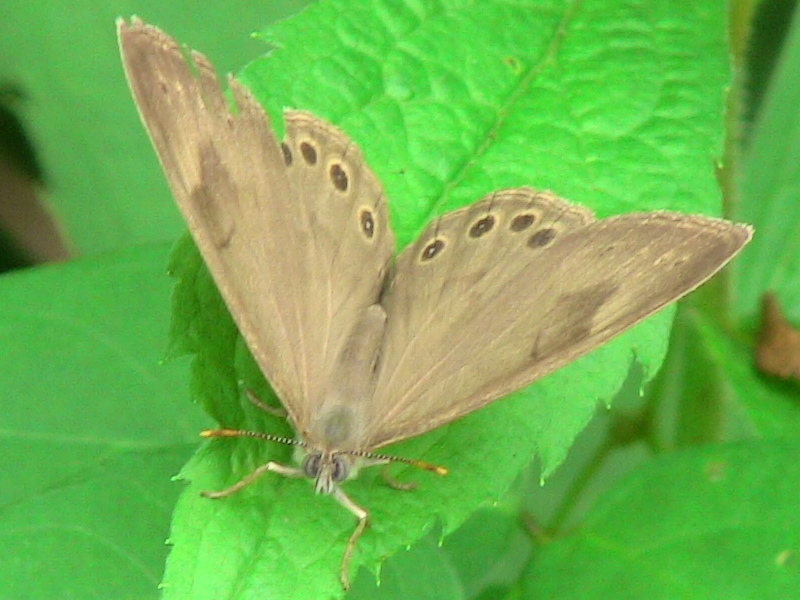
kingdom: Animalia
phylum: Arthropoda
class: Insecta
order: Lepidoptera
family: Nymphalidae
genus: Lethe
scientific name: Lethe eurydice
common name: Eyed brown
